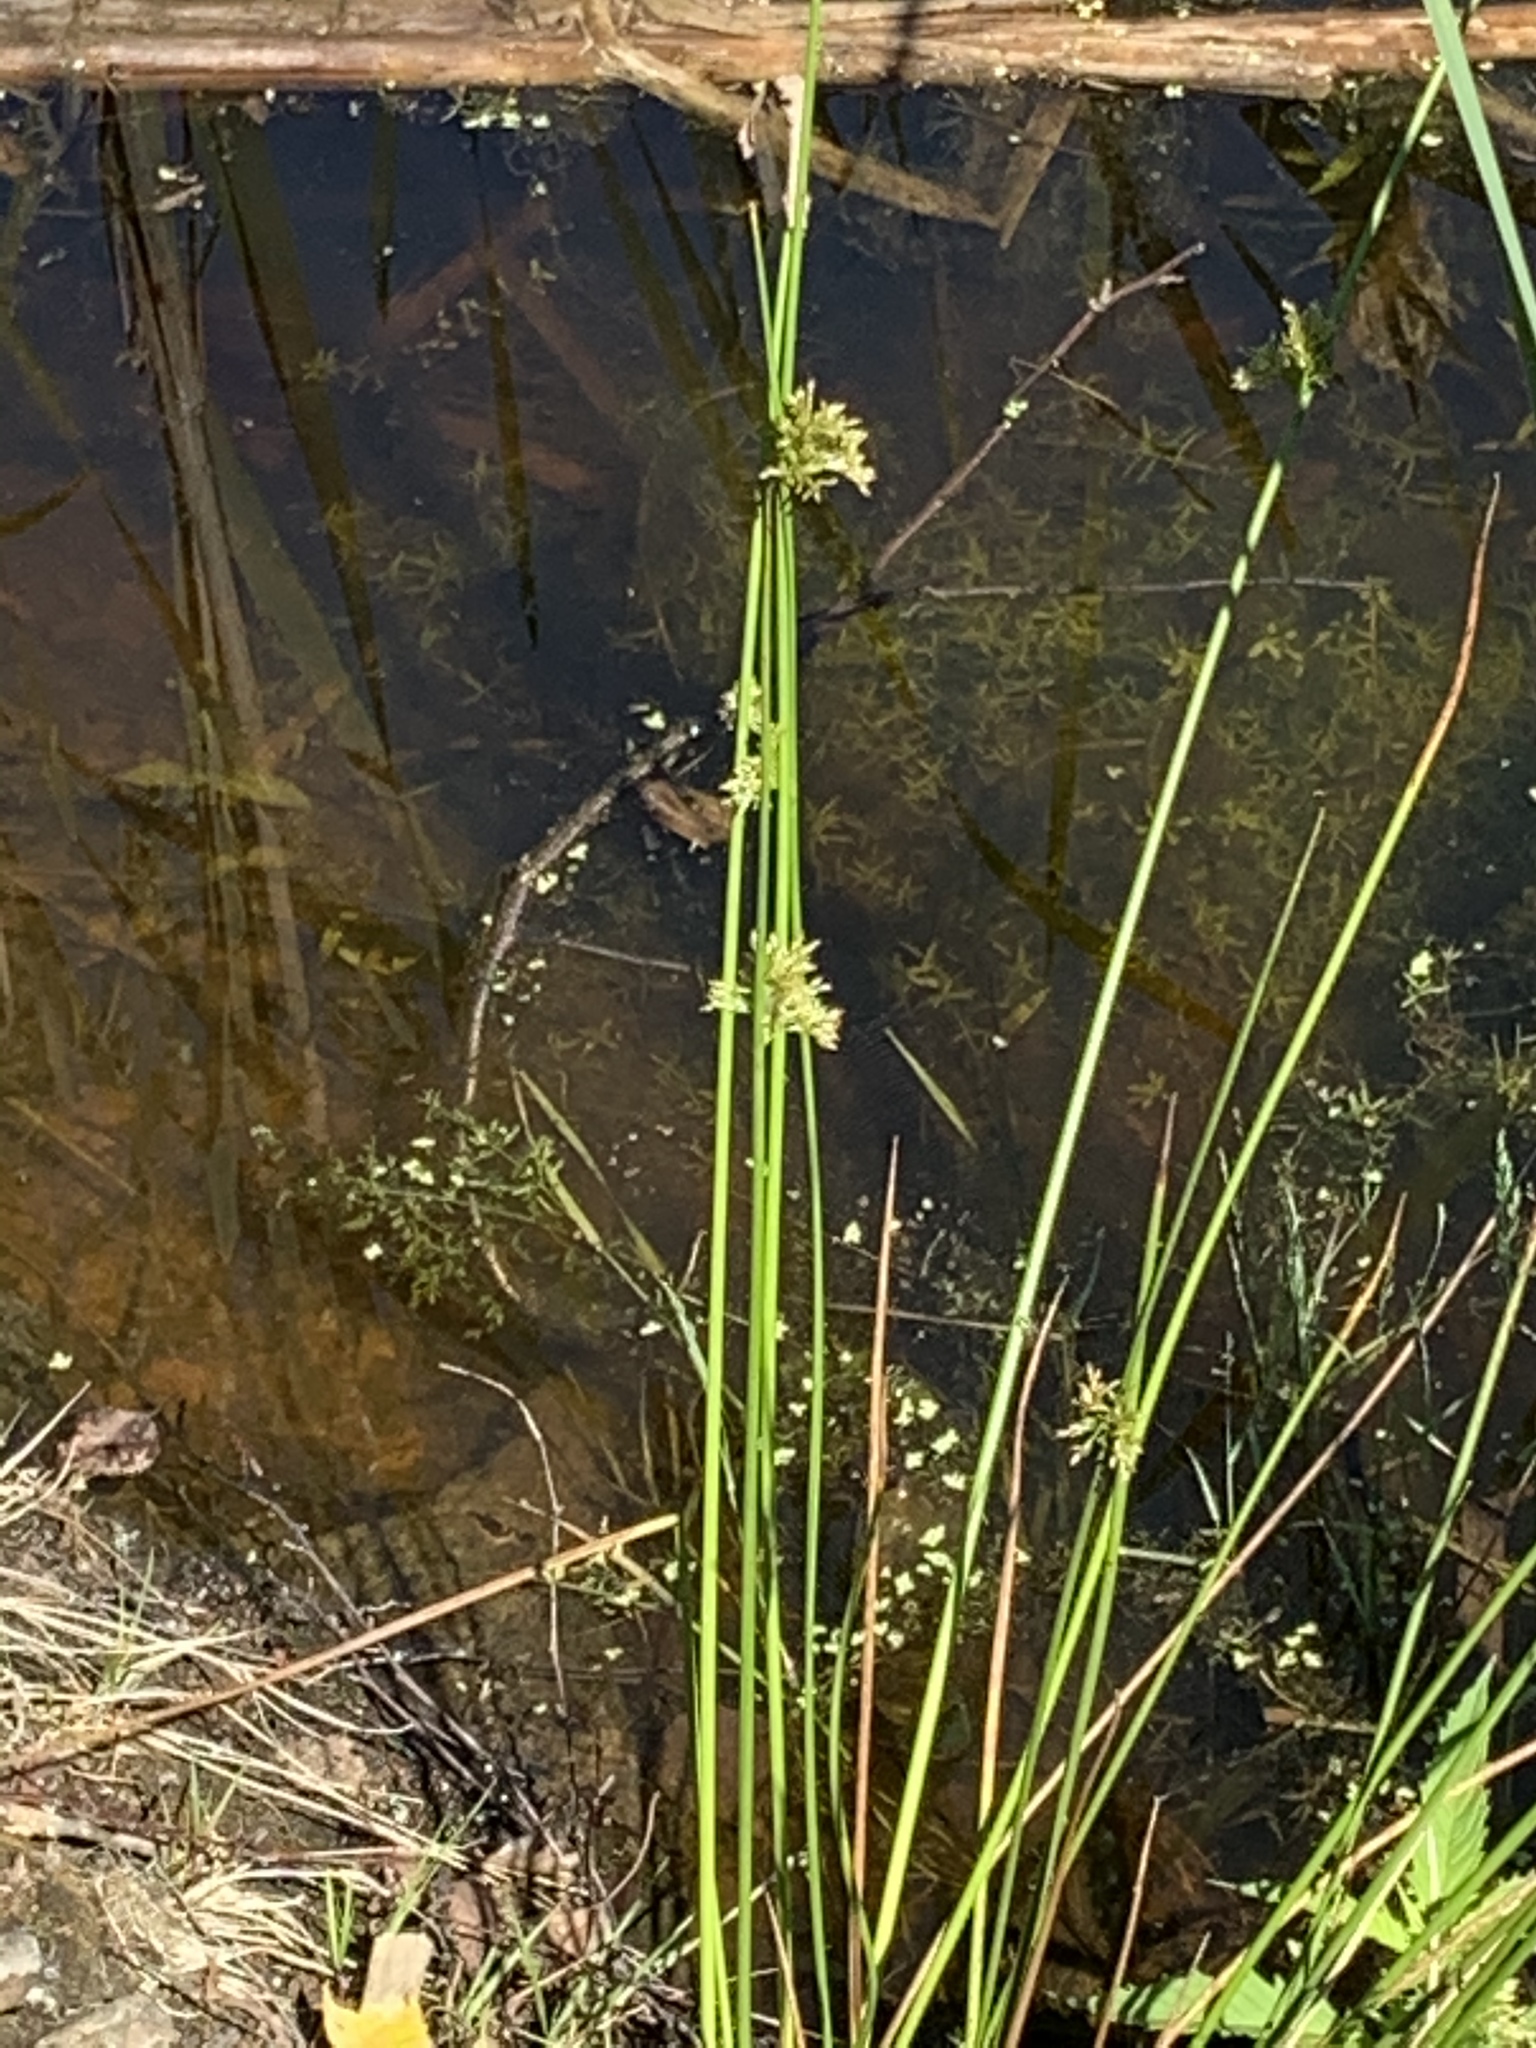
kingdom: Plantae
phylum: Tracheophyta
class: Liliopsida
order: Poales
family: Juncaceae
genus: Juncus
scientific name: Juncus effusus
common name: Soft rush
